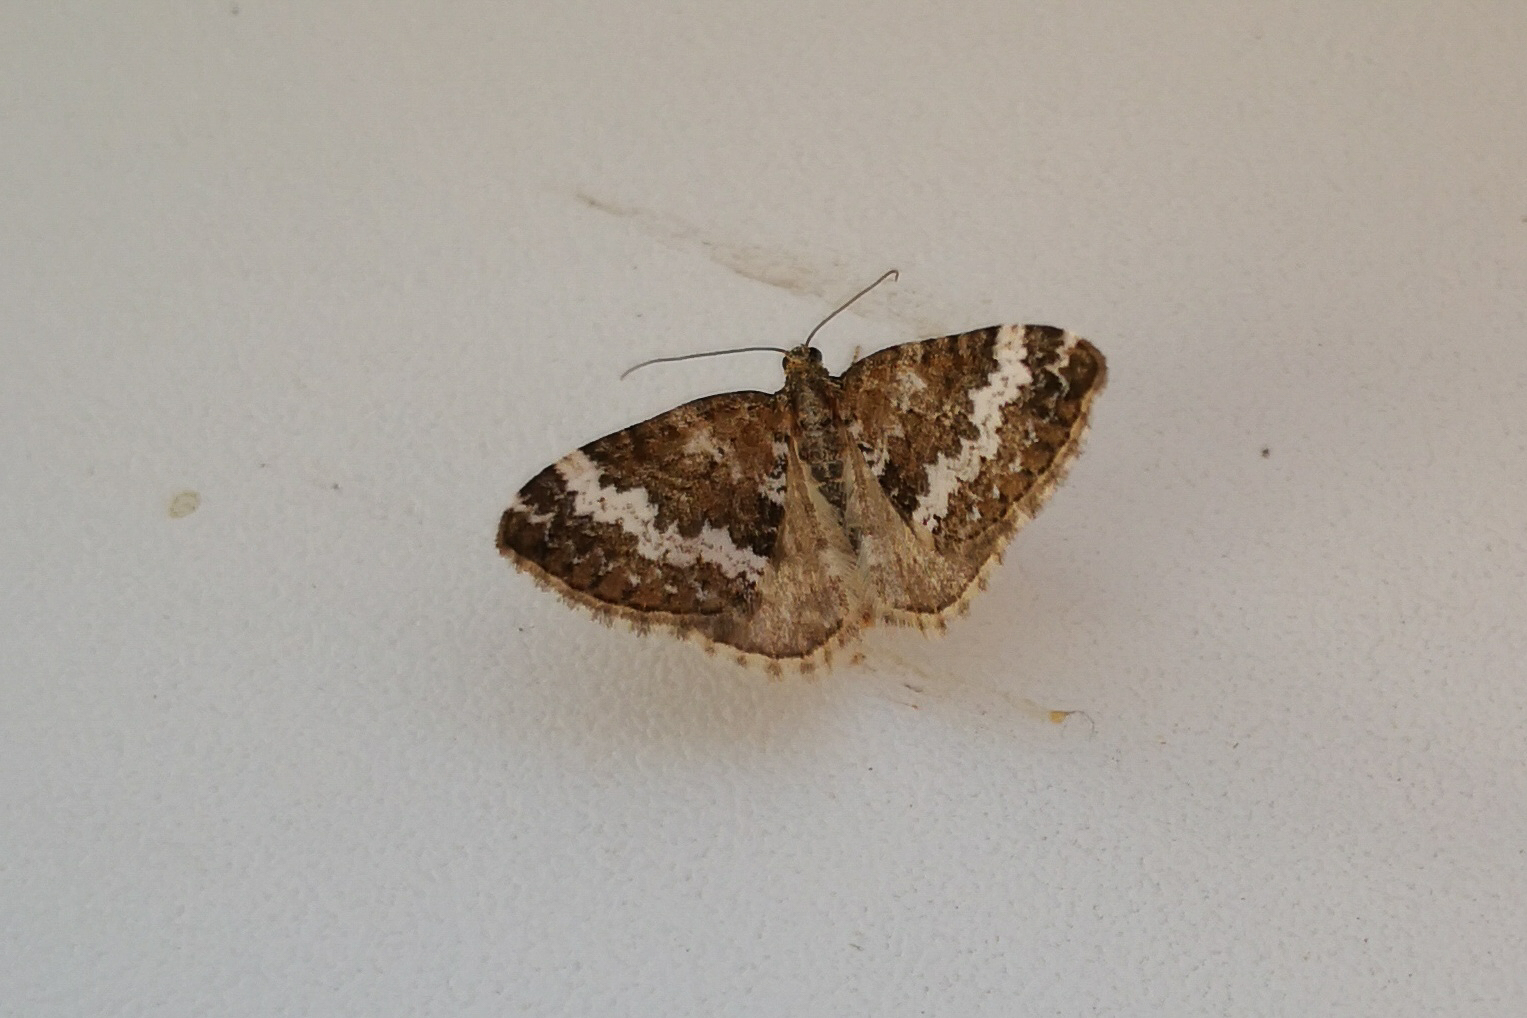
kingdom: Animalia
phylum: Arthropoda
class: Insecta
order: Lepidoptera
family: Geometridae
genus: Perizoma
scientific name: Perizoma alchemillata
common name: Small rivulet
